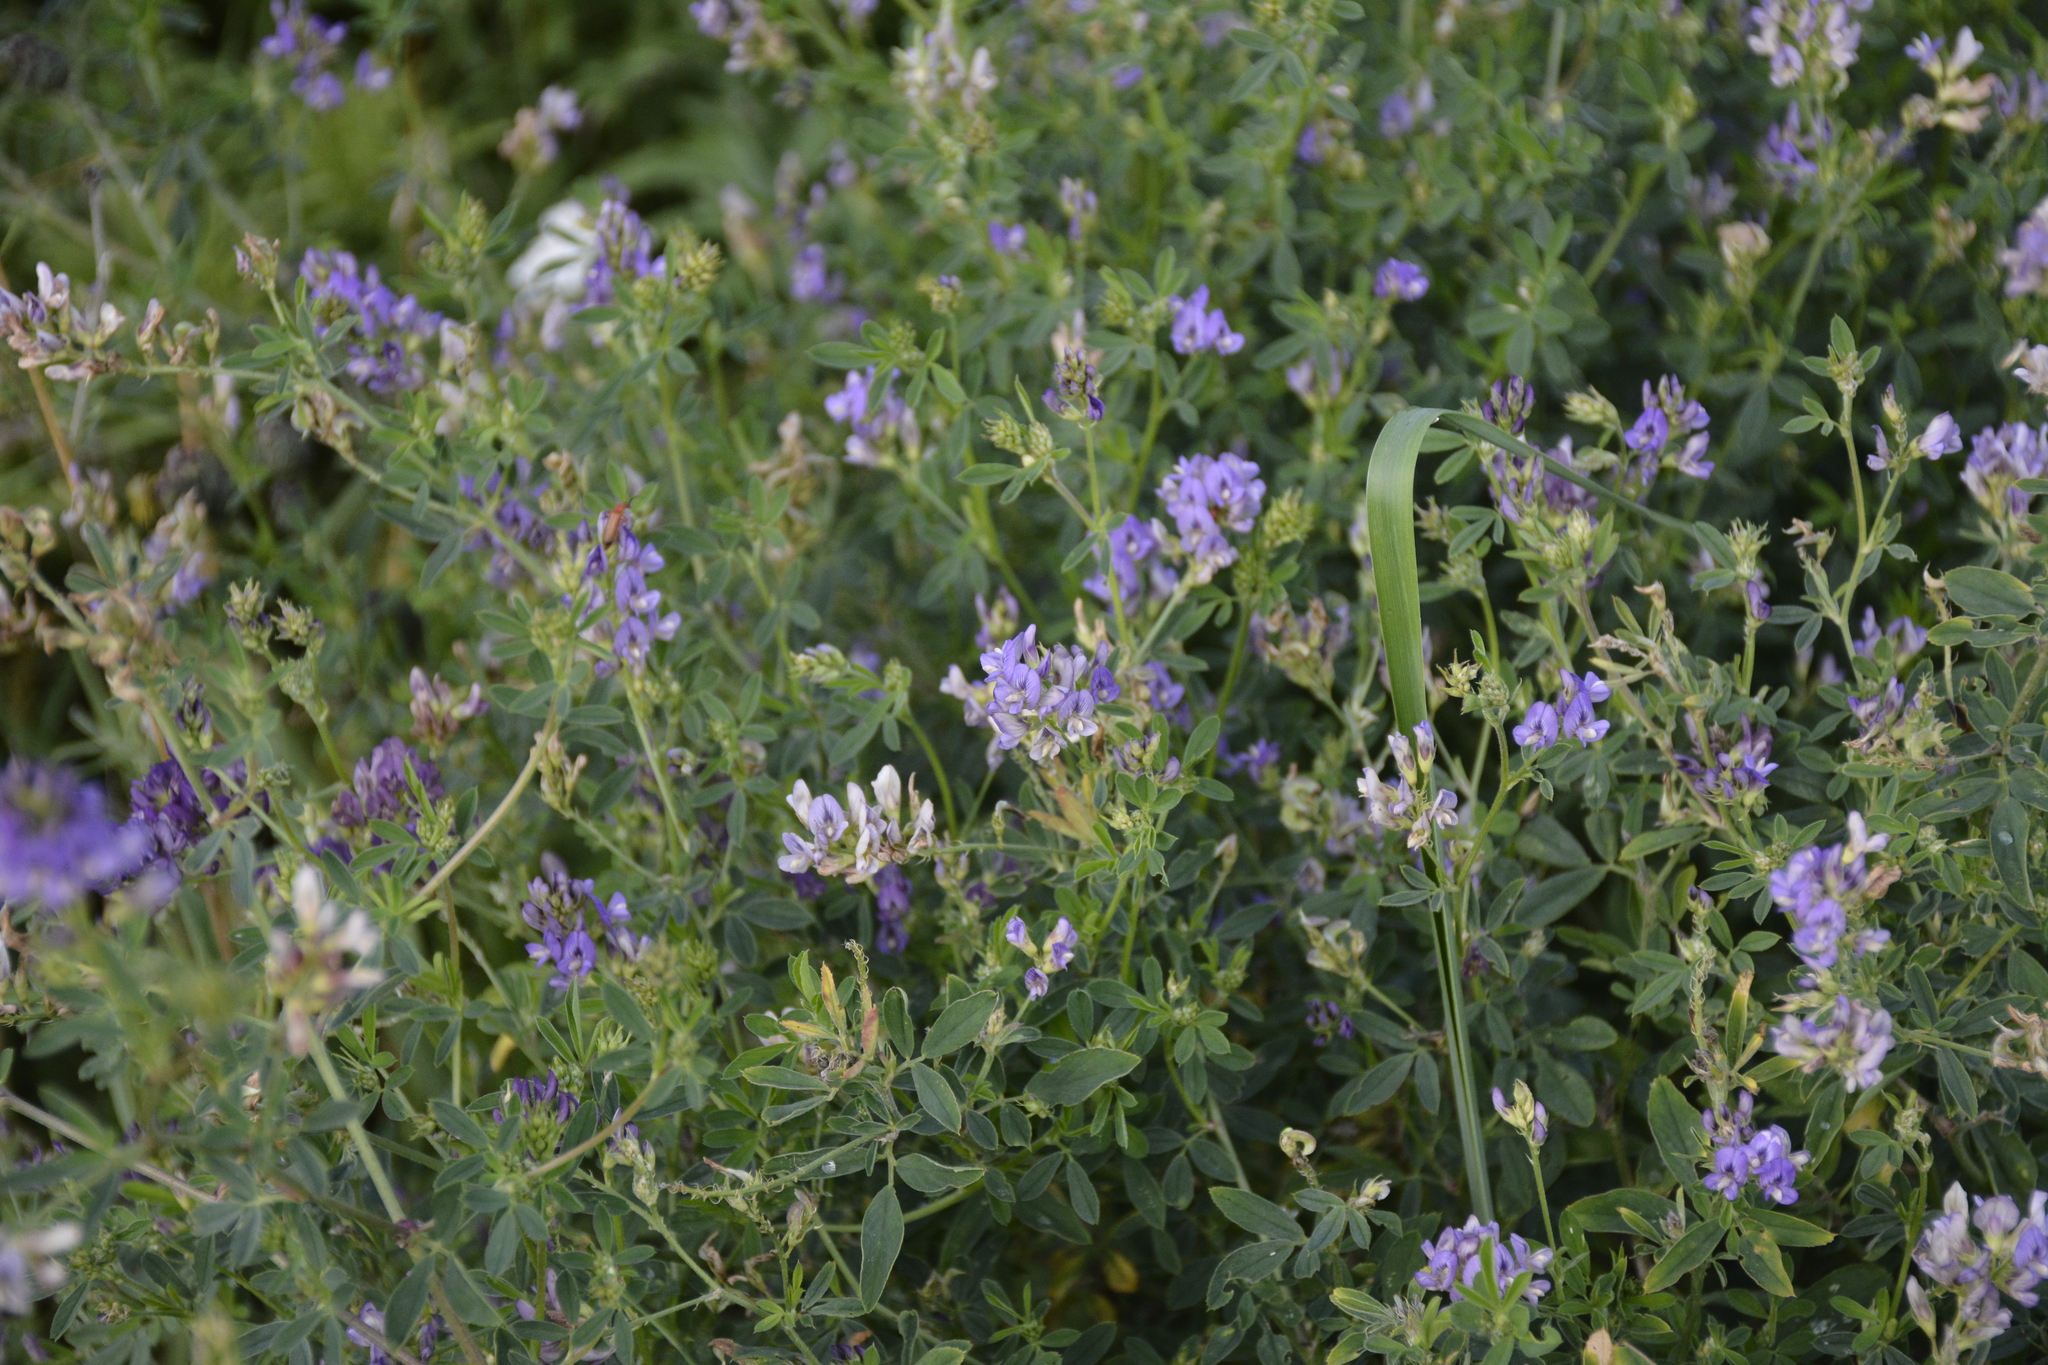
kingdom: Plantae
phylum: Tracheophyta
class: Magnoliopsida
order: Fabales
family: Fabaceae
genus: Medicago
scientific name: Medicago varia
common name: Sand lucerne
